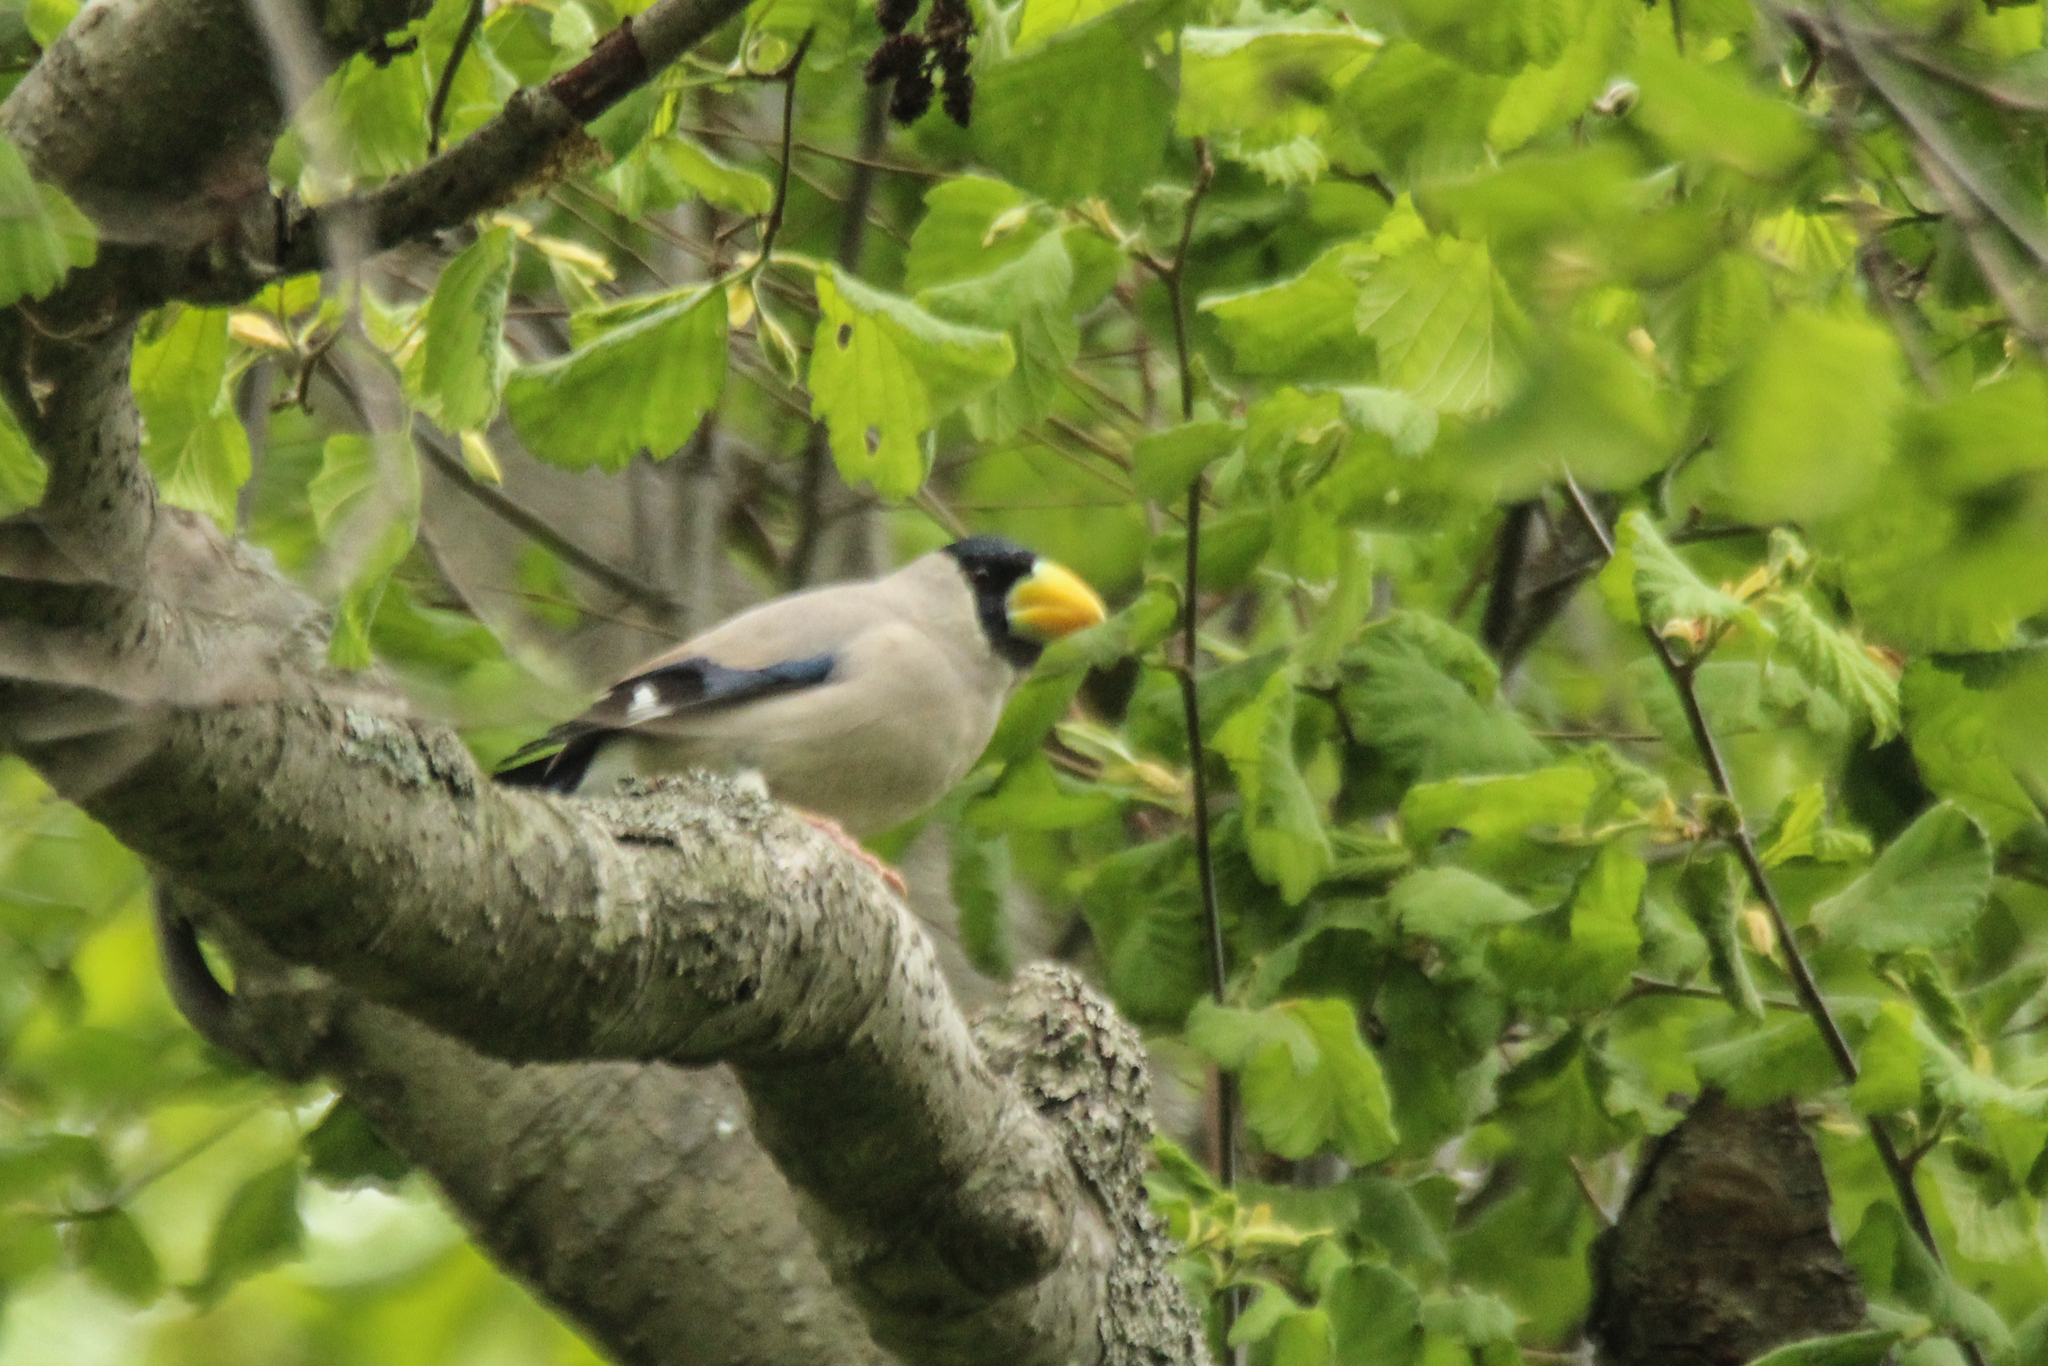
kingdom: Animalia
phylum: Chordata
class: Aves
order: Passeriformes
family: Fringillidae
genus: Eophona
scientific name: Eophona personata
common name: Japanese grosbeak
